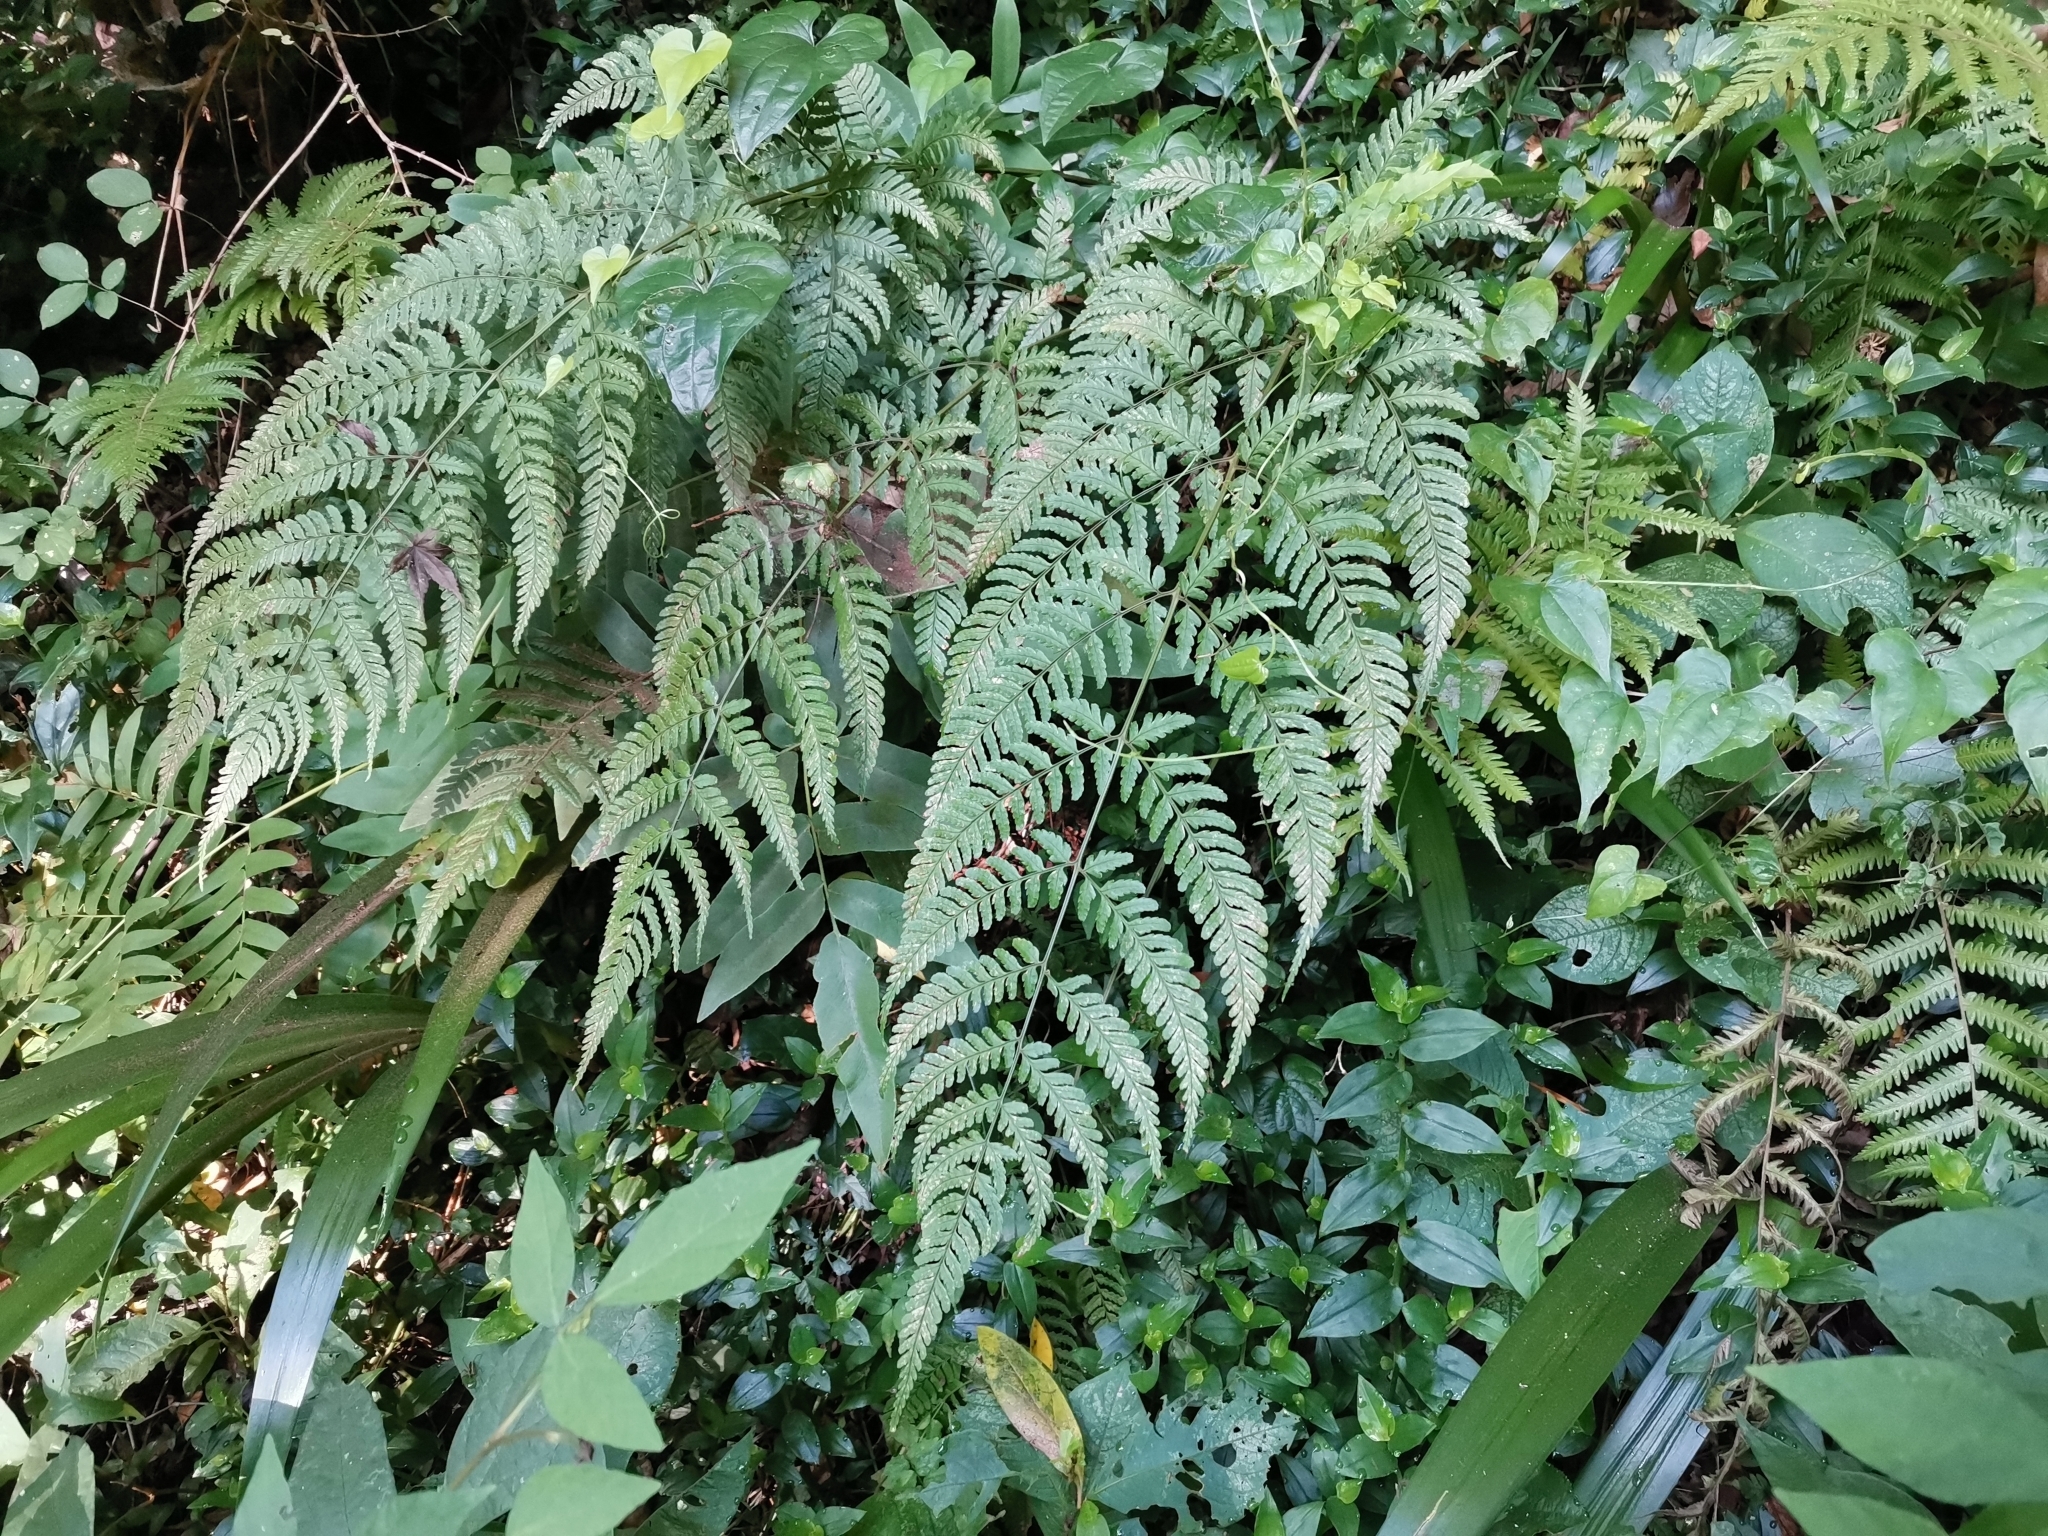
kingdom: Plantae
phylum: Tracheophyta
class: Polypodiopsida
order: Polypodiales
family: Dryopteridaceae
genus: Dryopteris
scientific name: Dryopteris sacrosancta
